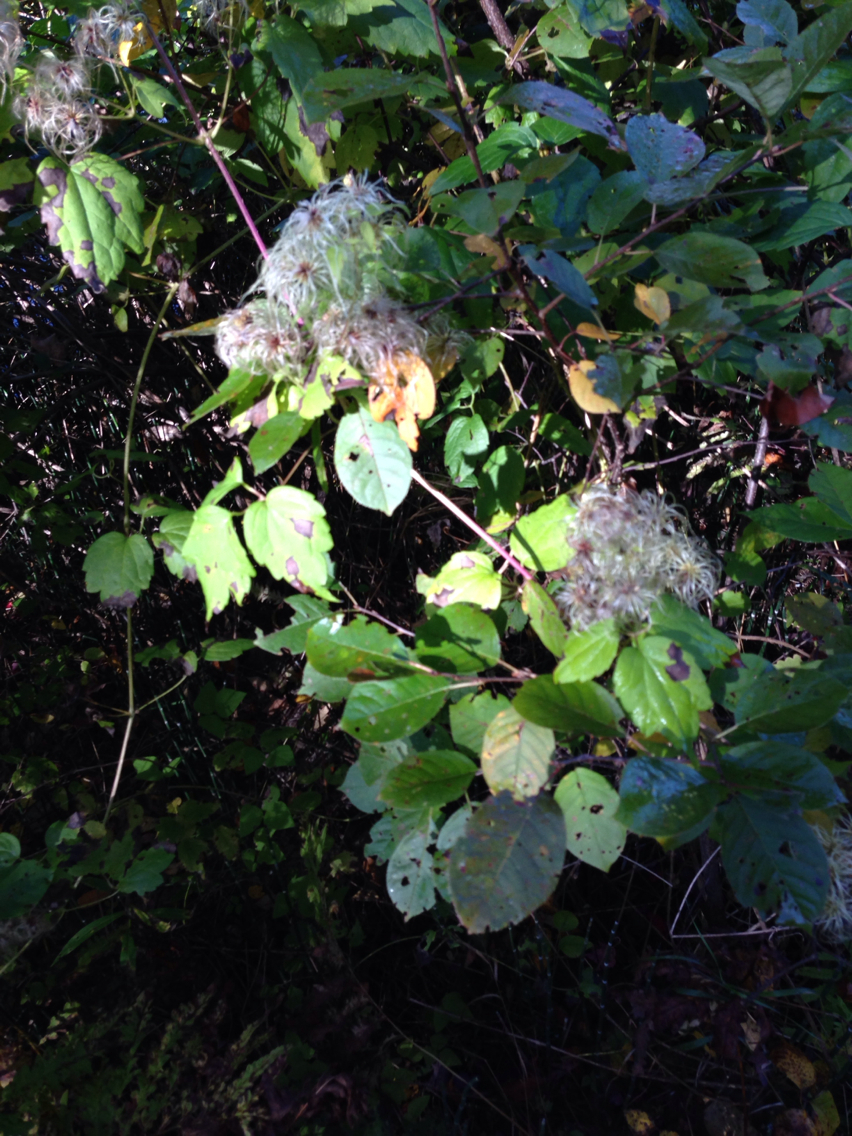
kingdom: Plantae
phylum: Tracheophyta
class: Magnoliopsida
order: Ranunculales
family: Ranunculaceae
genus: Clematis
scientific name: Clematis virginiana
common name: Virgin's-bower
